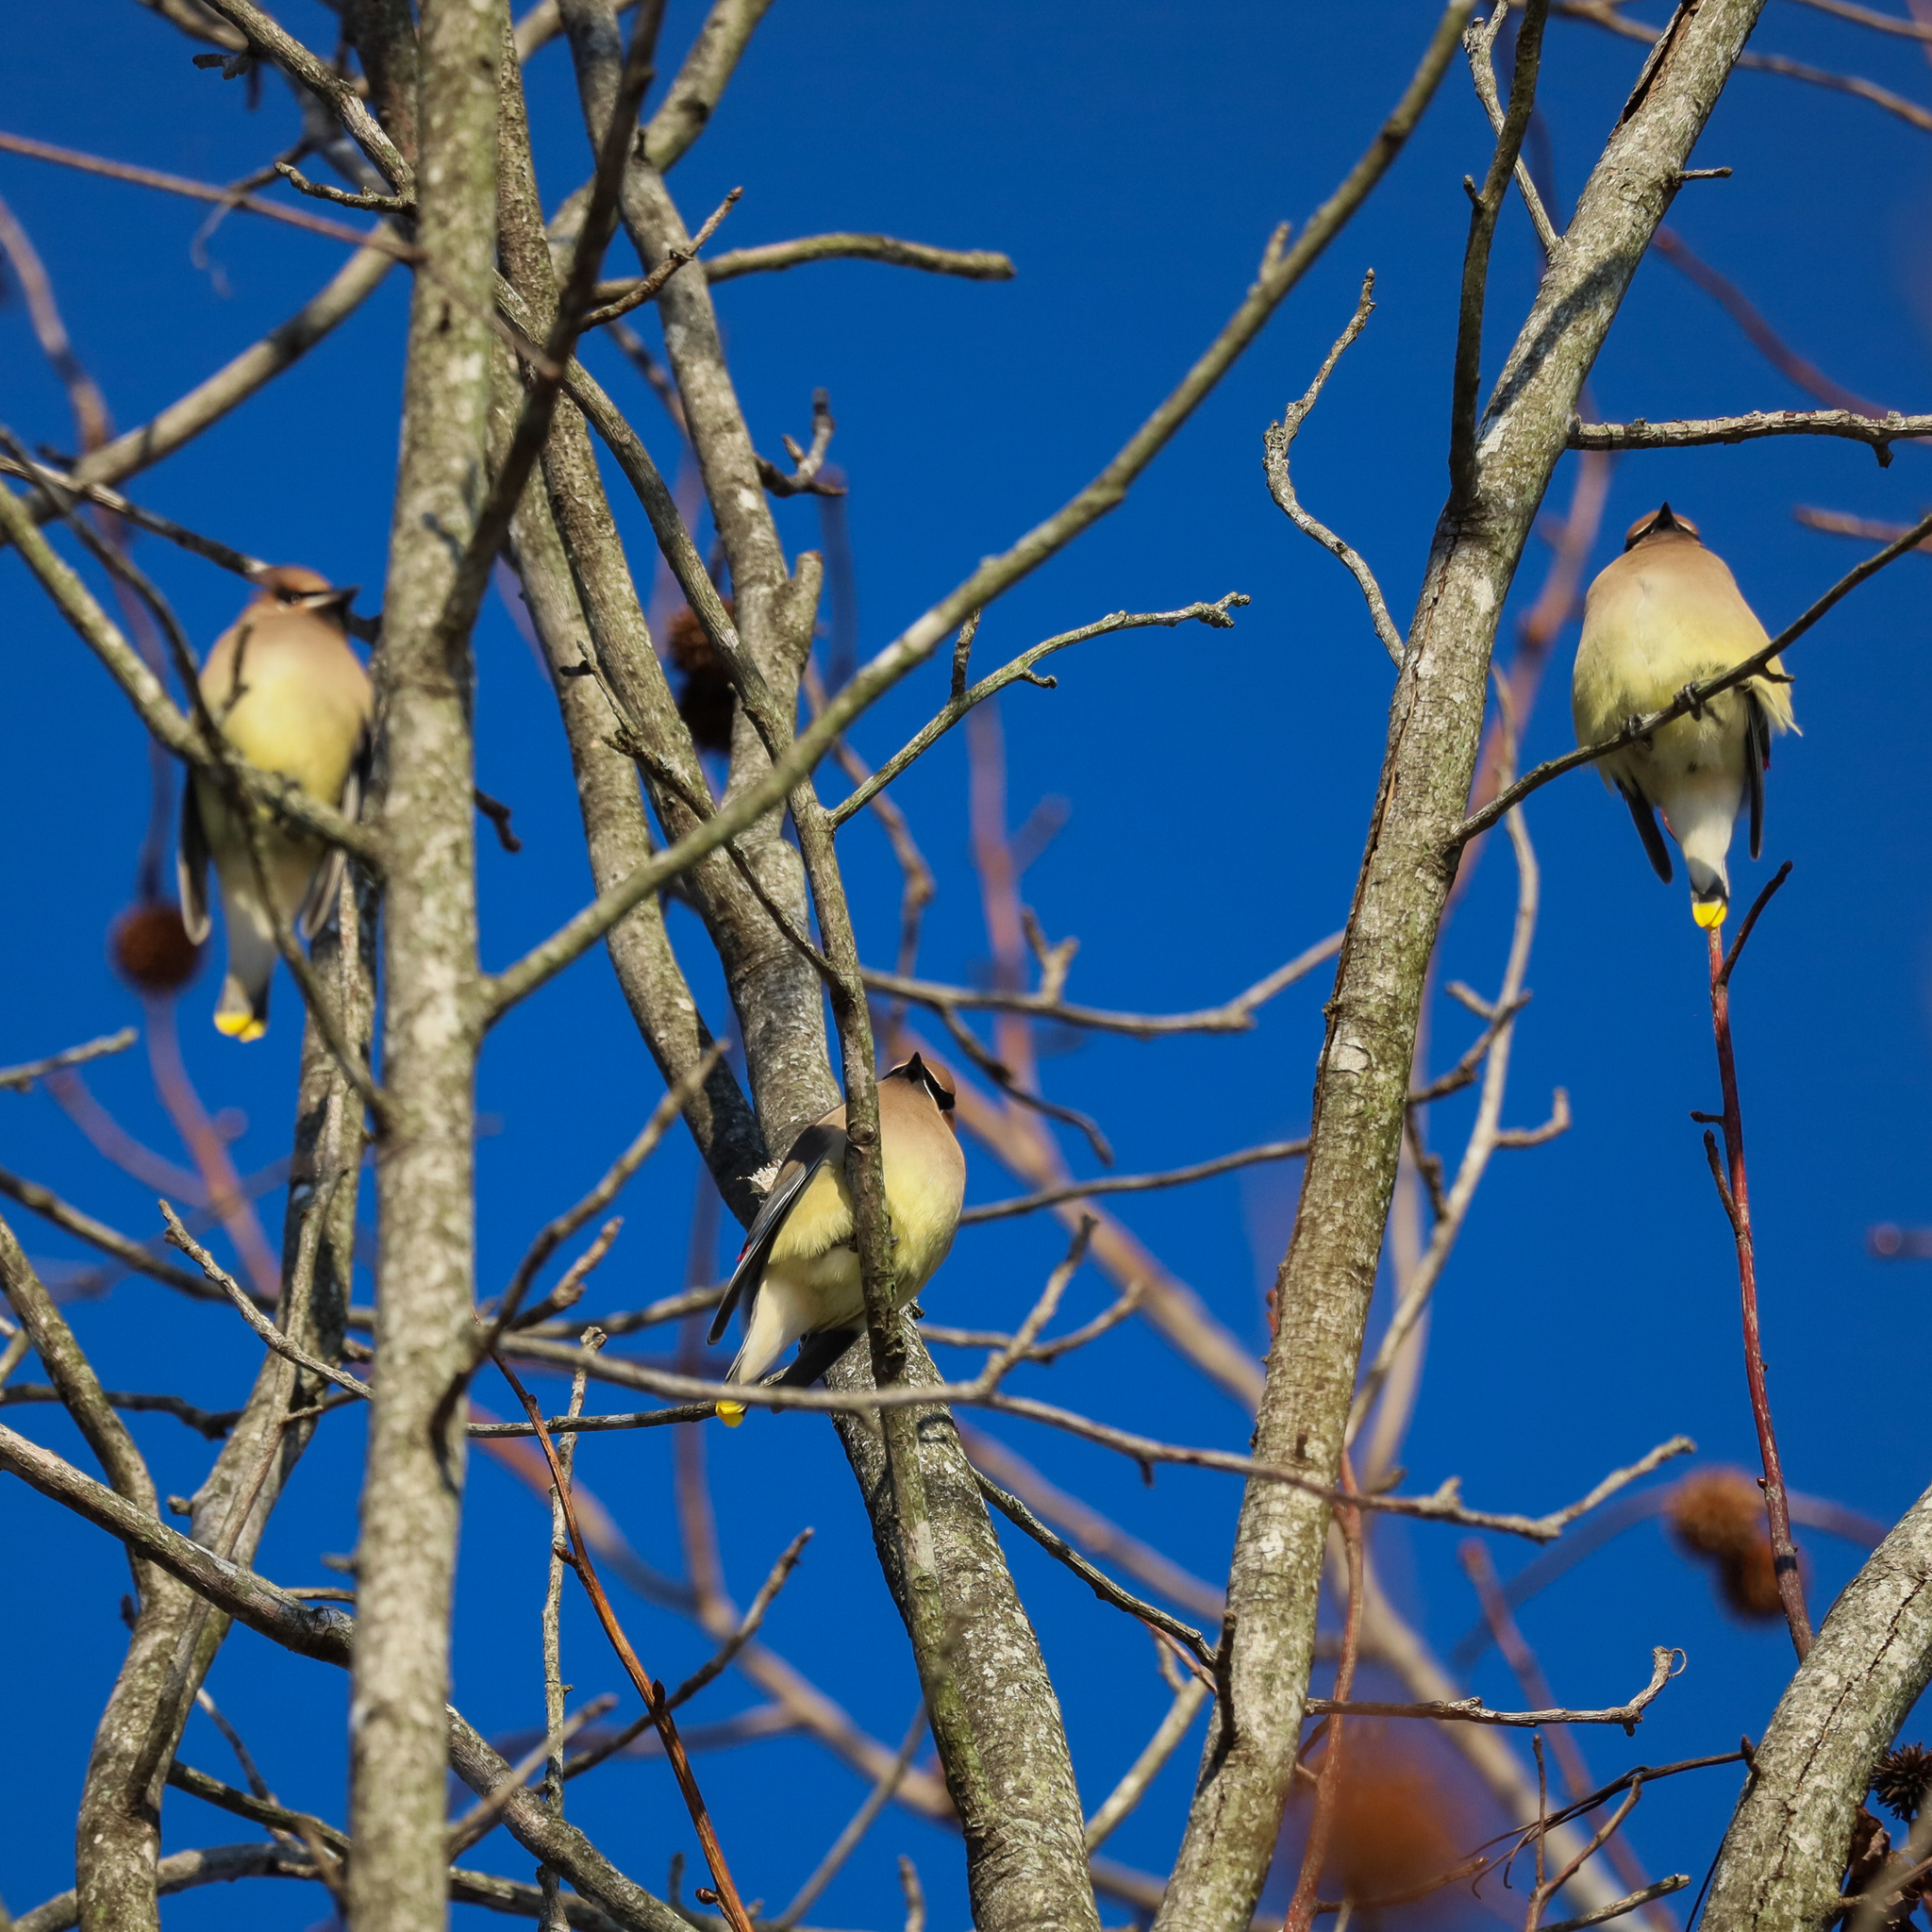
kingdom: Animalia
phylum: Chordata
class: Aves
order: Passeriformes
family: Bombycillidae
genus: Bombycilla
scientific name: Bombycilla cedrorum
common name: Cedar waxwing
